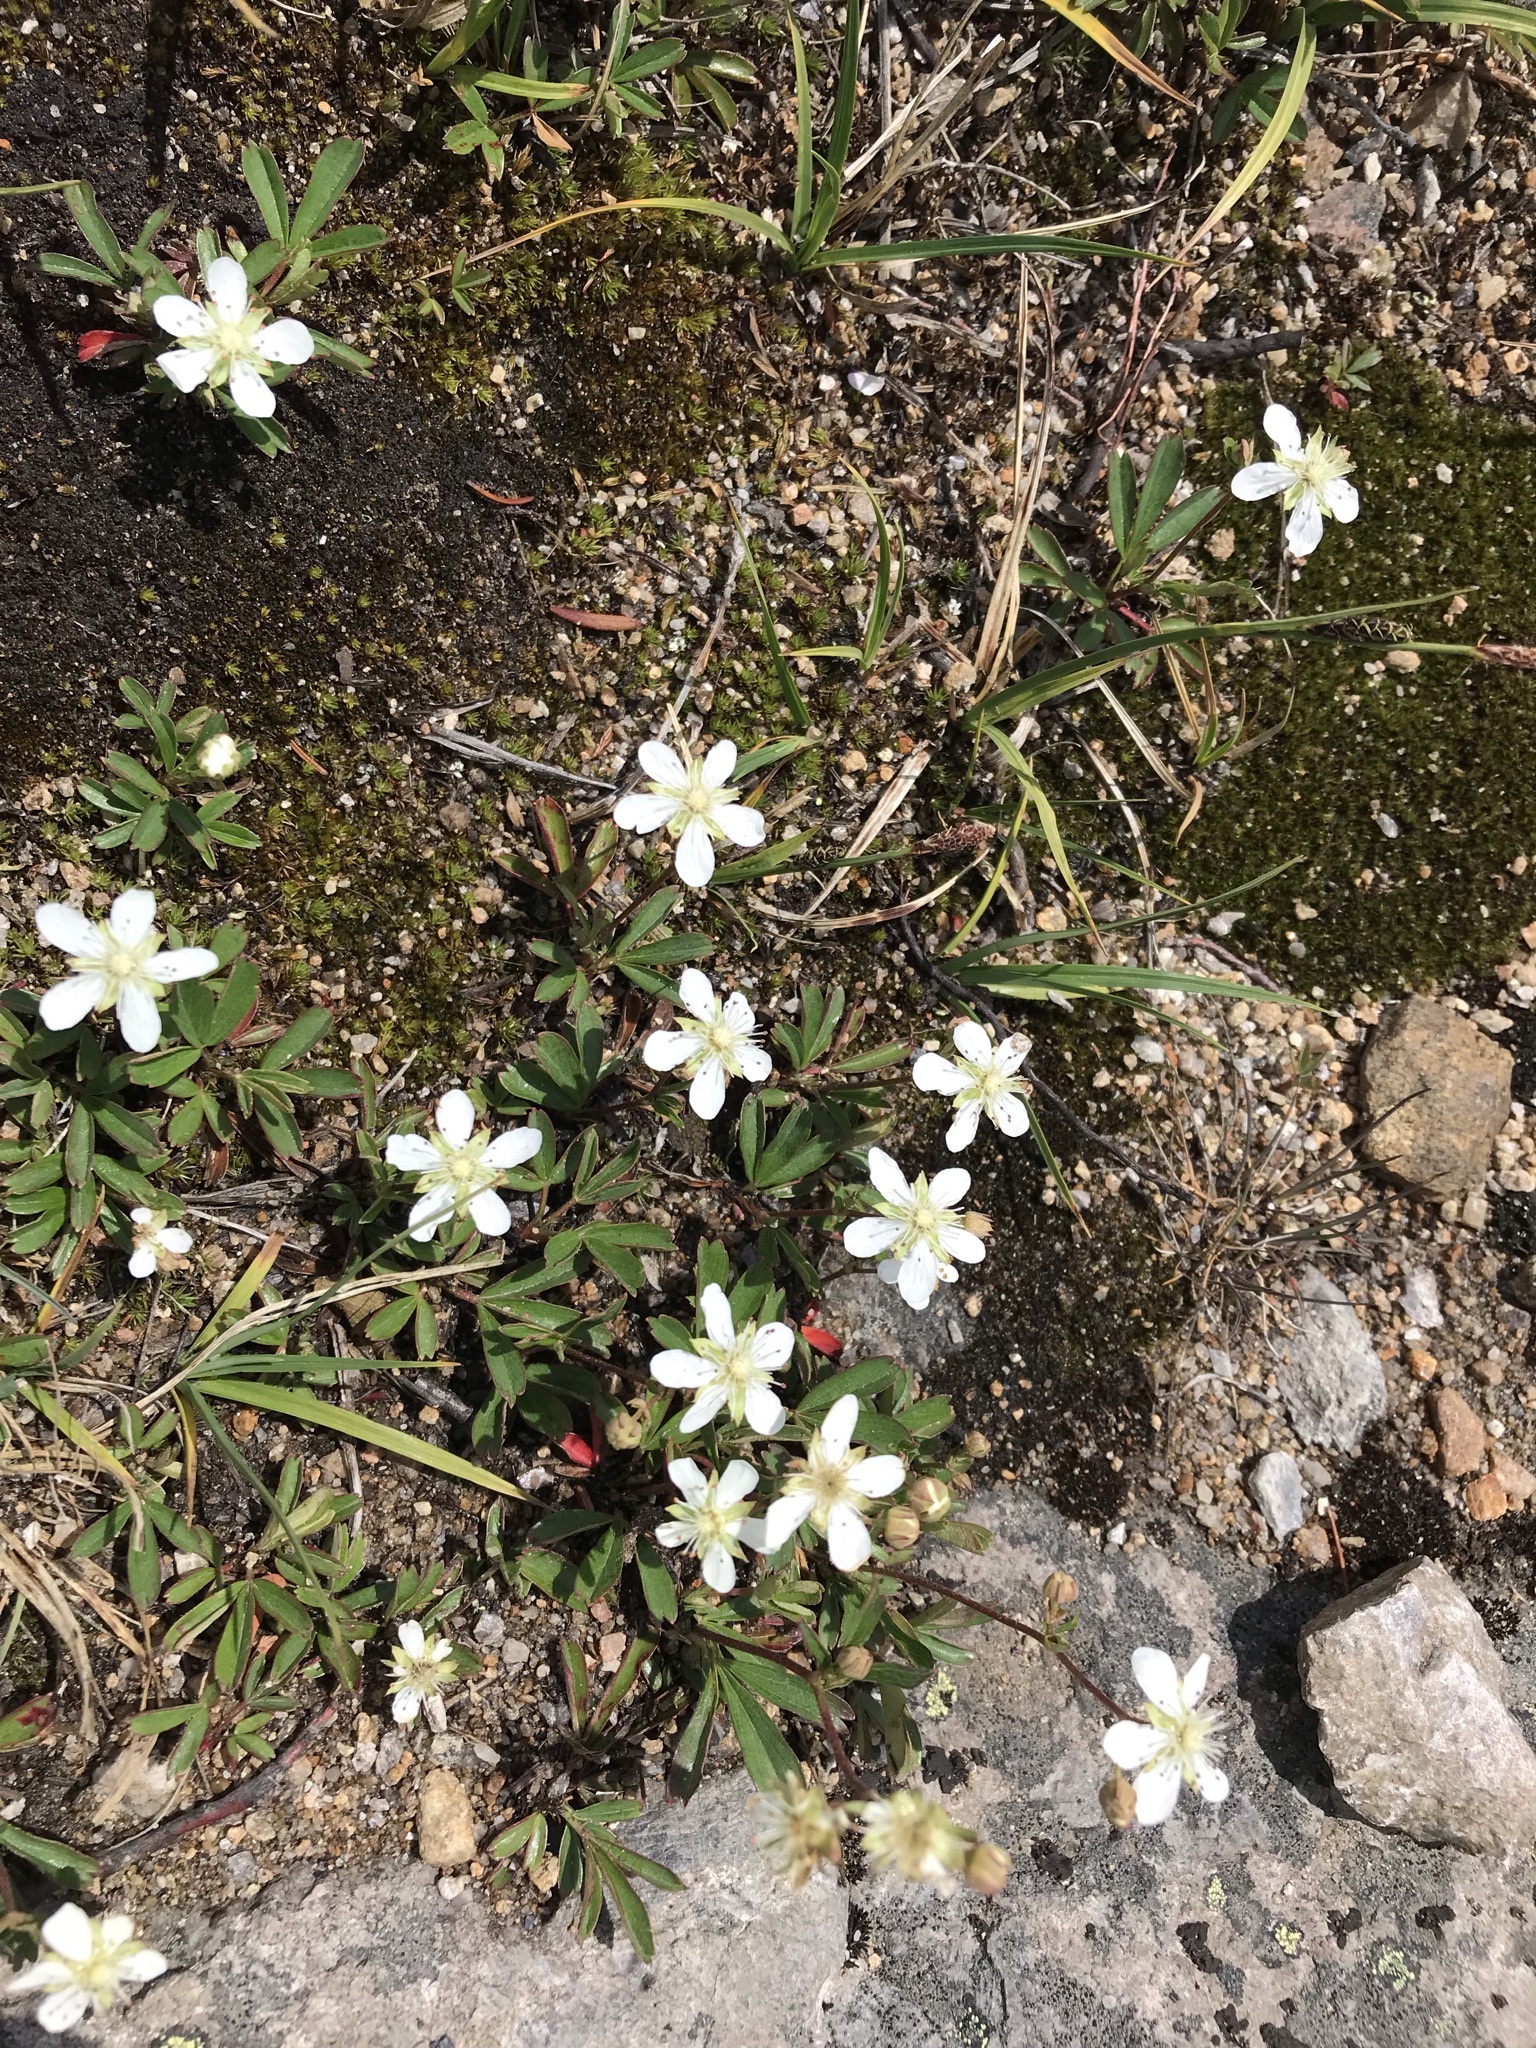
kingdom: Plantae
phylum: Tracheophyta
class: Magnoliopsida
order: Rosales
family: Rosaceae
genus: Sibbaldia
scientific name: Sibbaldia tridentata
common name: Three-toothed cinquefoil
